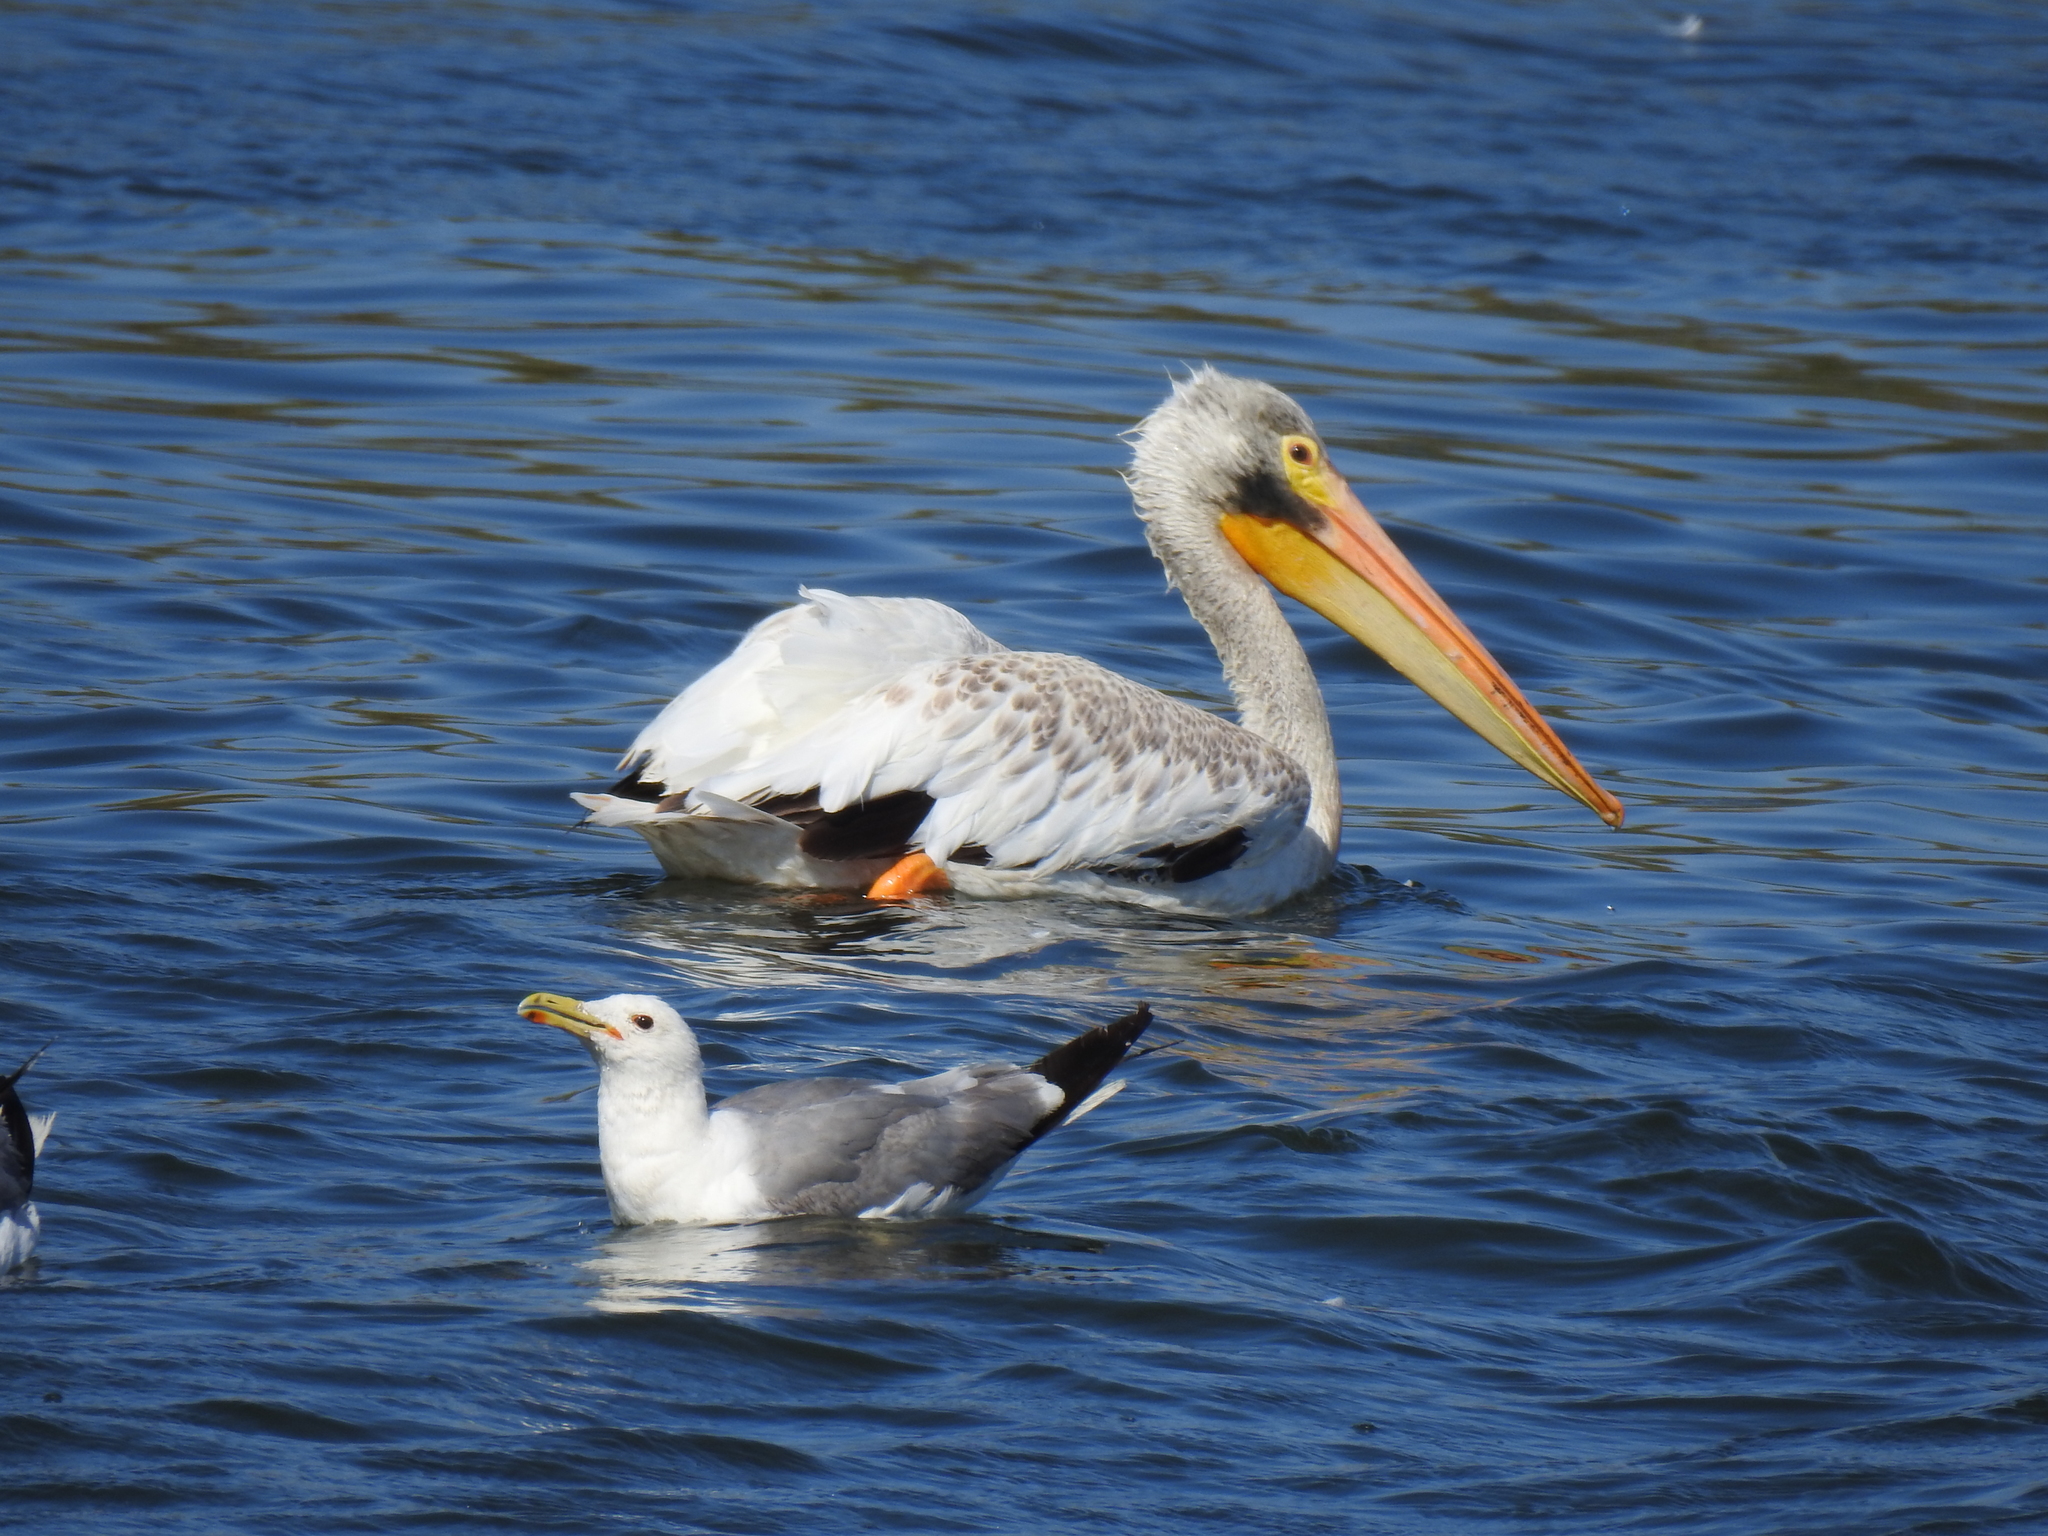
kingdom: Animalia
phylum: Chordata
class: Aves
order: Charadriiformes
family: Laridae
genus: Larus
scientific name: Larus californicus
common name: California gull
